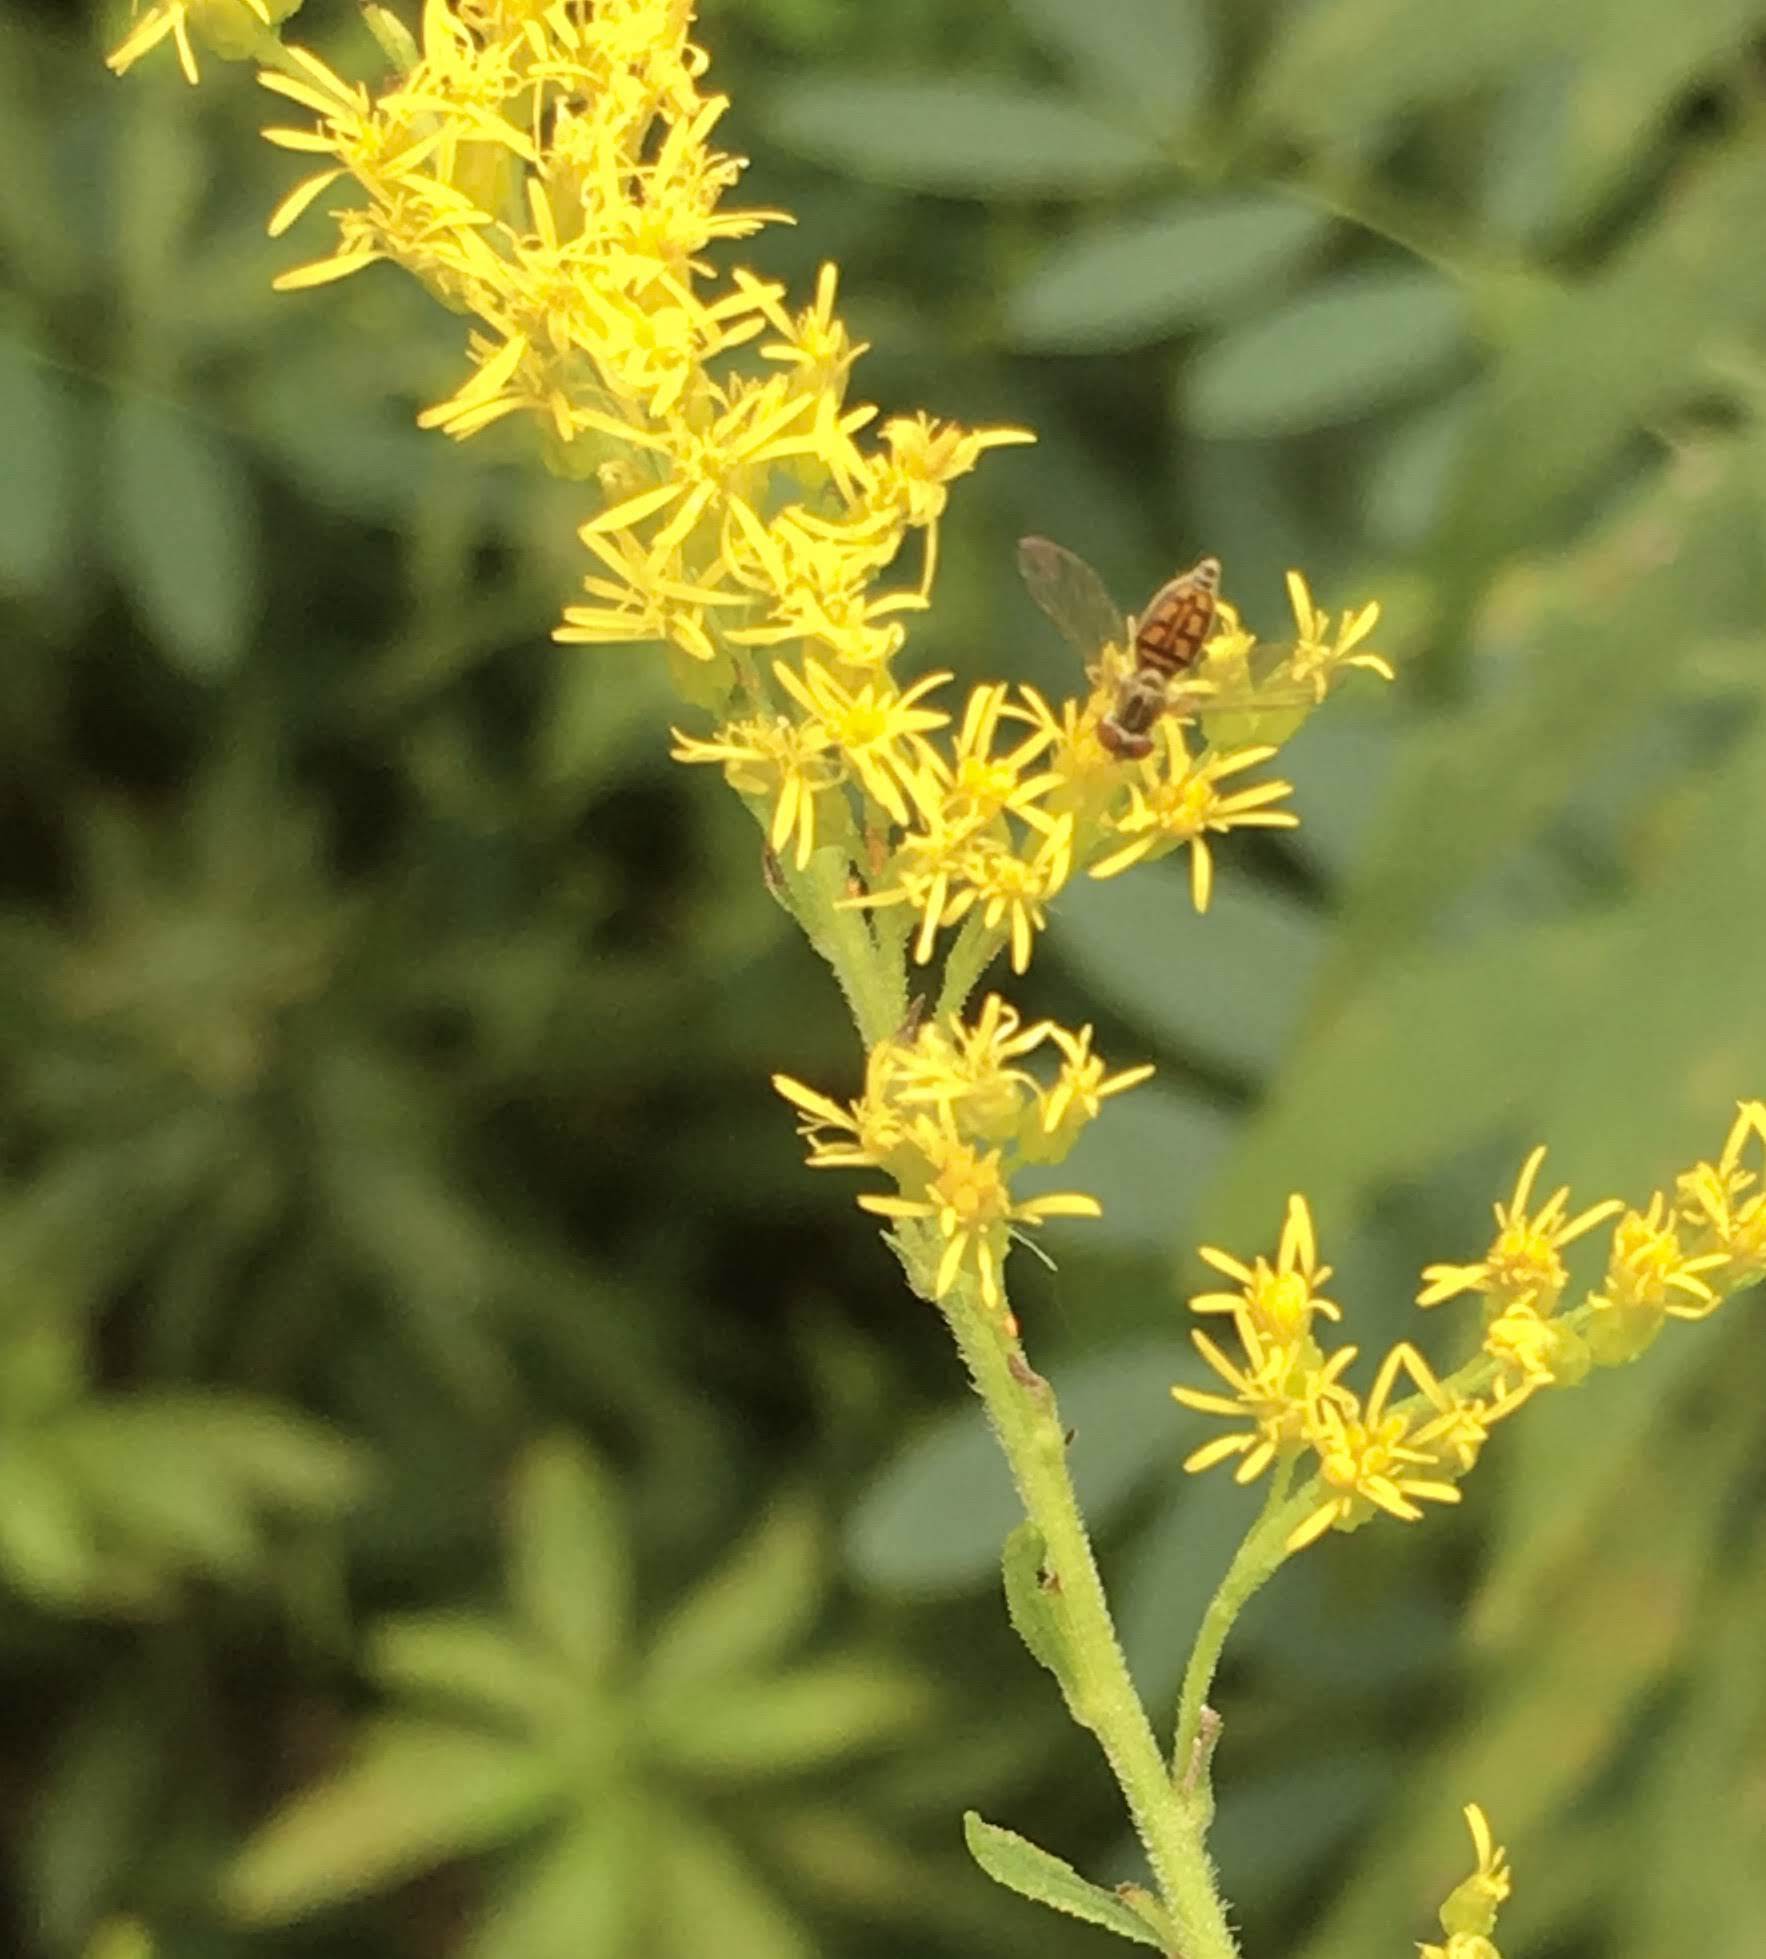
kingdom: Animalia
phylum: Arthropoda
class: Insecta
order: Diptera
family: Syrphidae
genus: Toxomerus
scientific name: Toxomerus marginatus
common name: Syrphid fly
